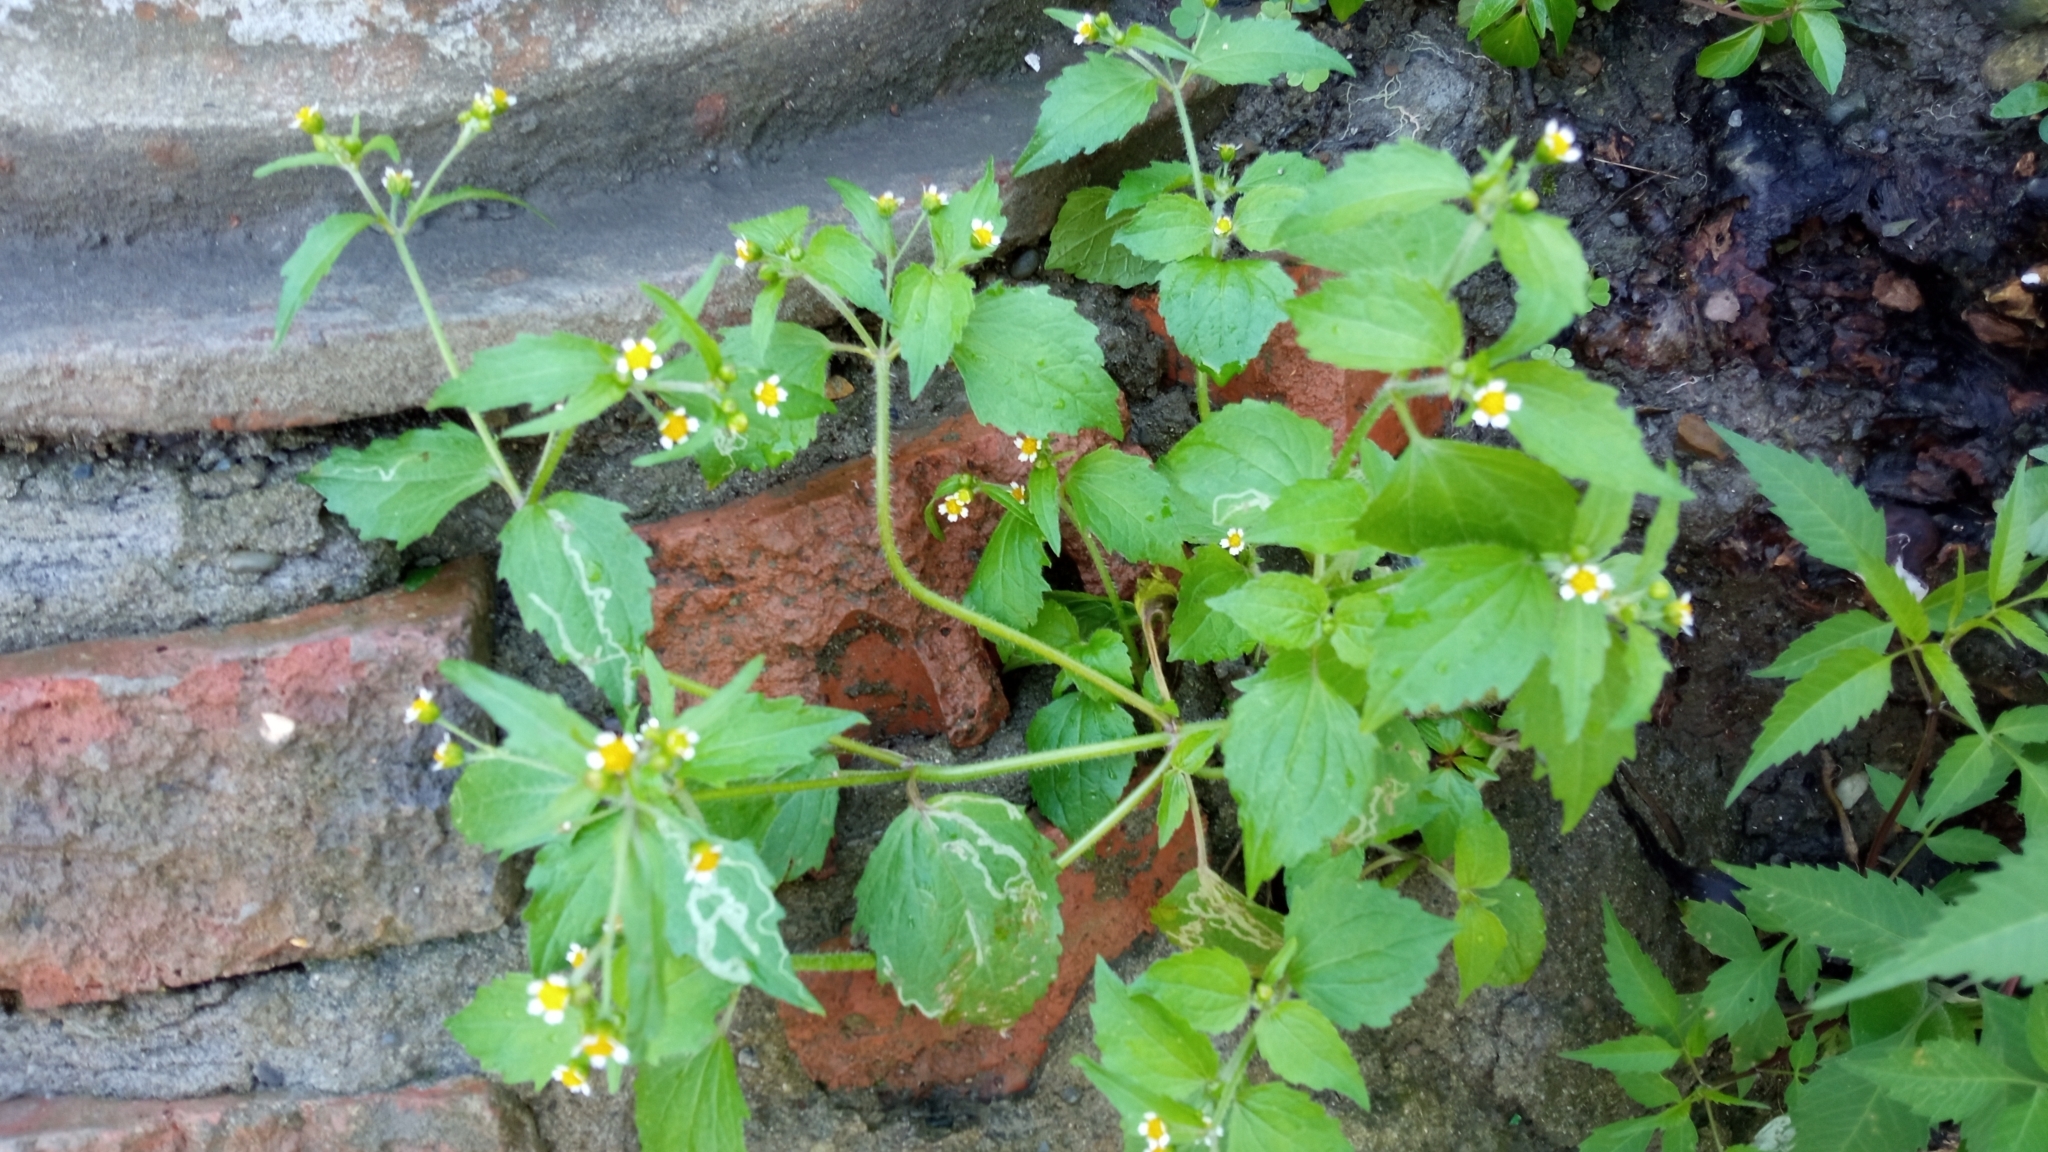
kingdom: Plantae
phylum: Tracheophyta
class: Magnoliopsida
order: Asterales
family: Asteraceae
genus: Galinsoga
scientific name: Galinsoga quadriradiata
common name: Shaggy soldier
